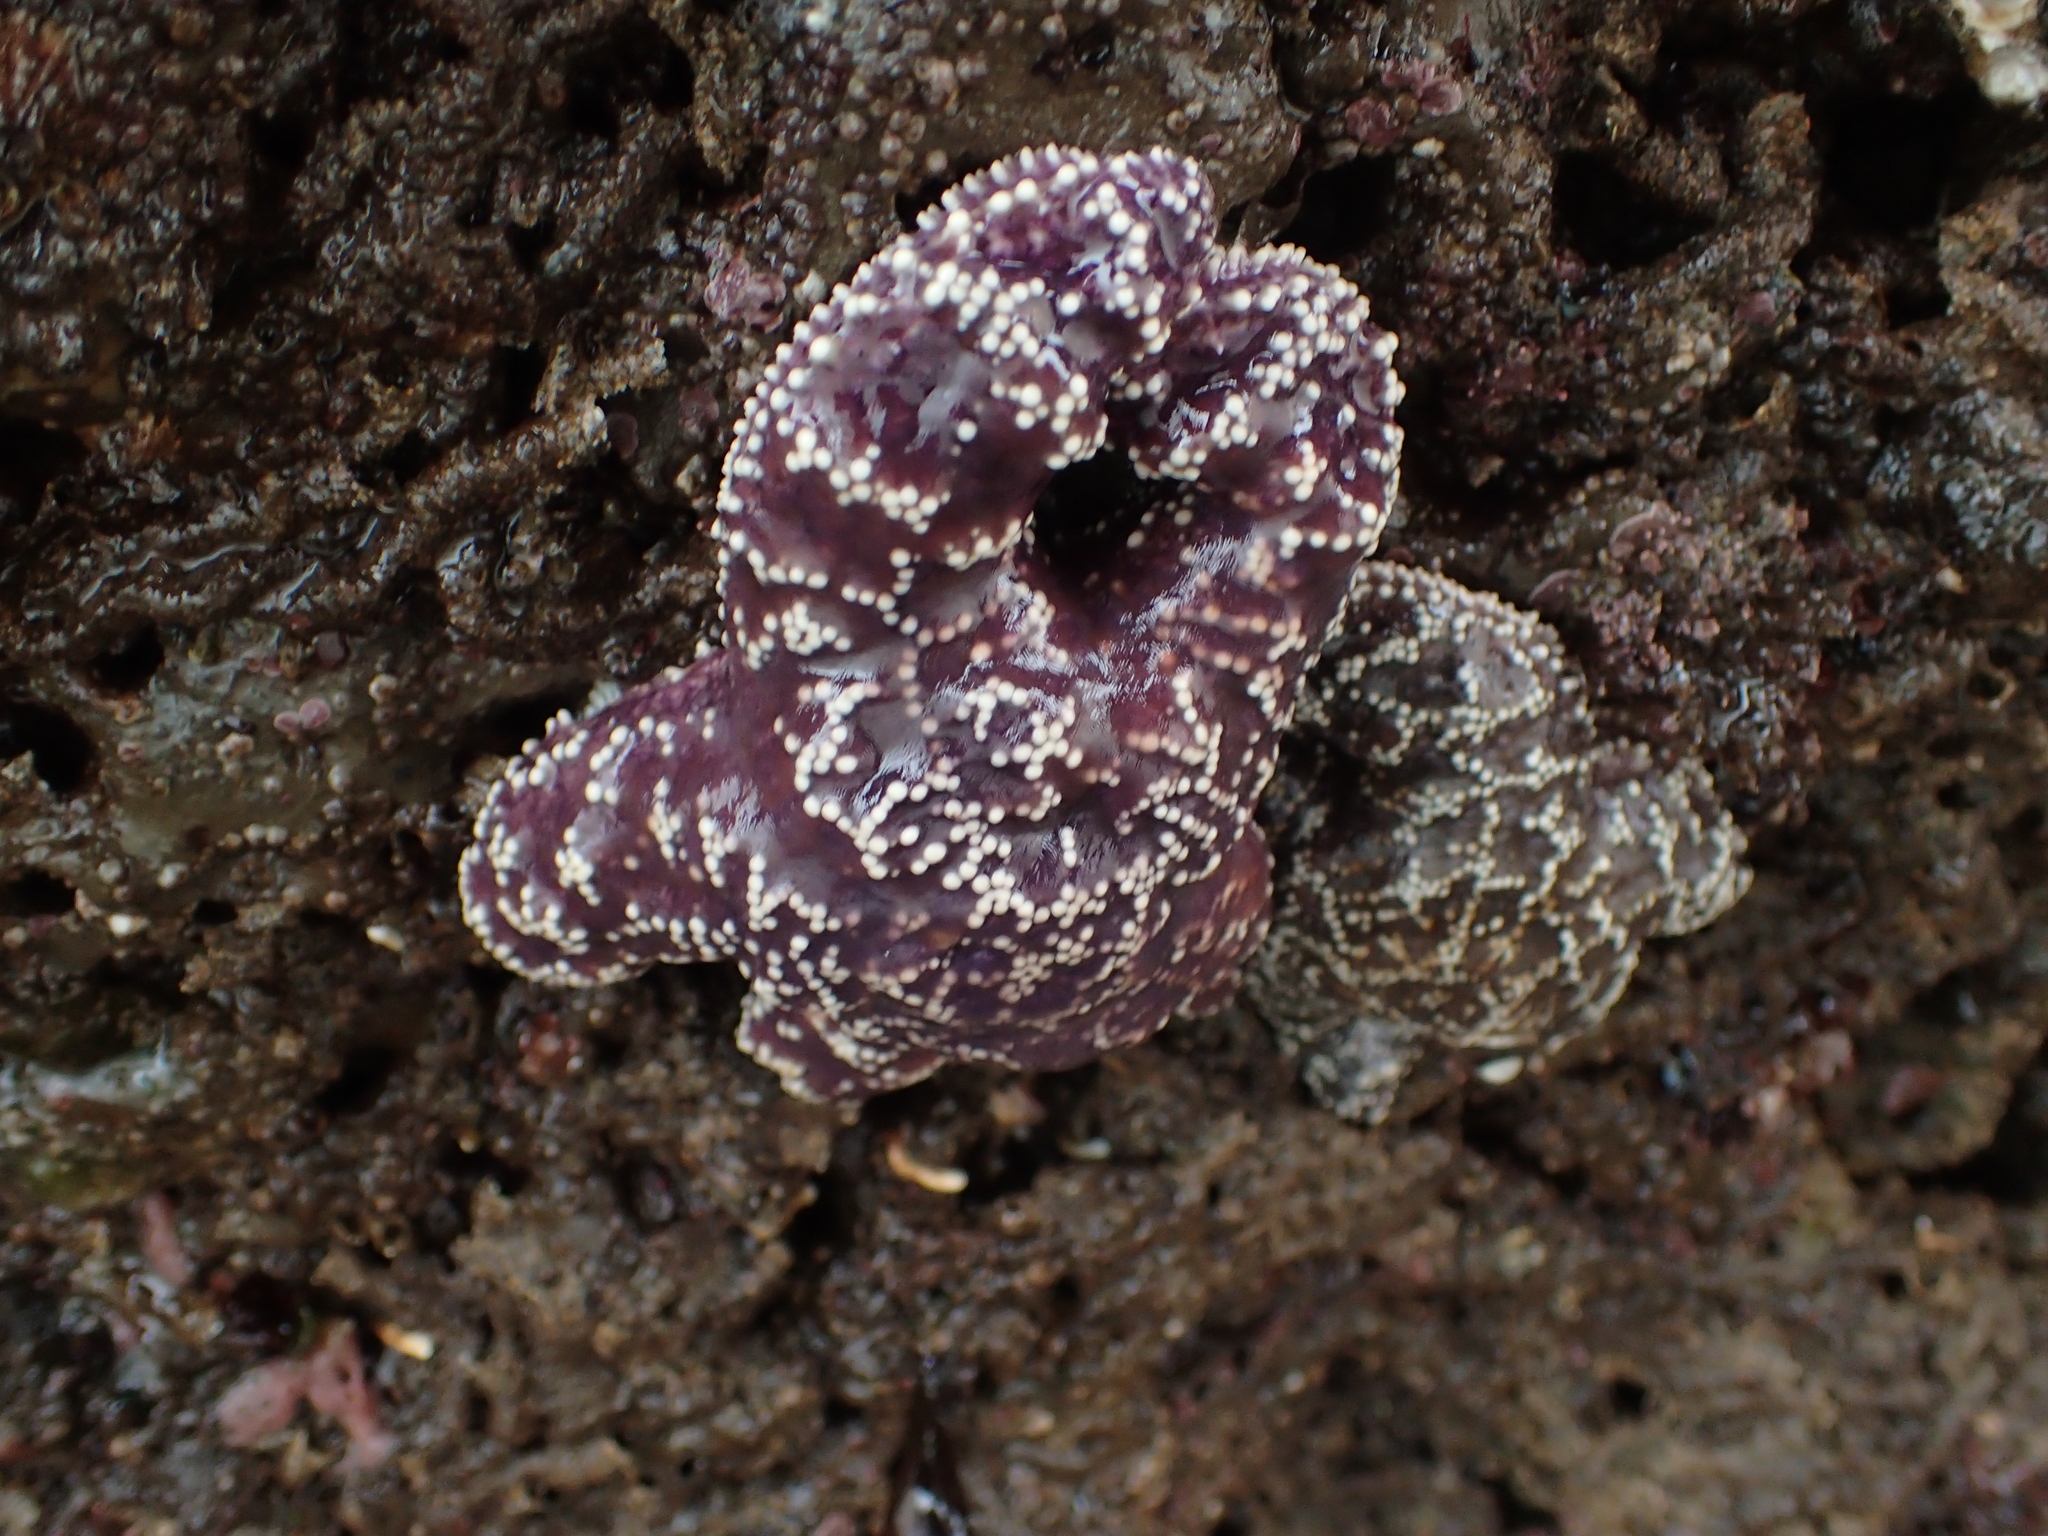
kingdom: Animalia
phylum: Echinodermata
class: Asteroidea
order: Forcipulatida
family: Asteriidae
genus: Pisaster
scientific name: Pisaster ochraceus
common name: Ochre stars
